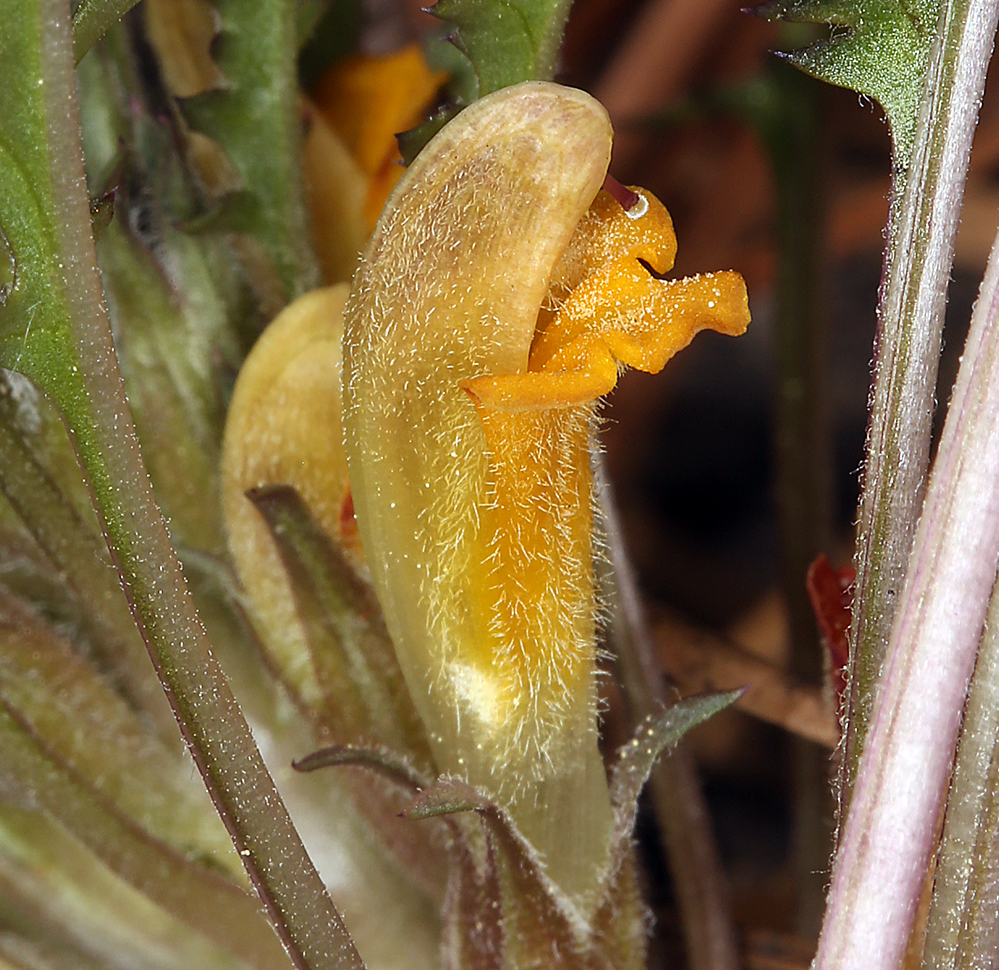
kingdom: Plantae
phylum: Tracheophyta
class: Magnoliopsida
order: Lamiales
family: Orobanchaceae
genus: Pedicularis
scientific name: Pedicularis semibarbata
